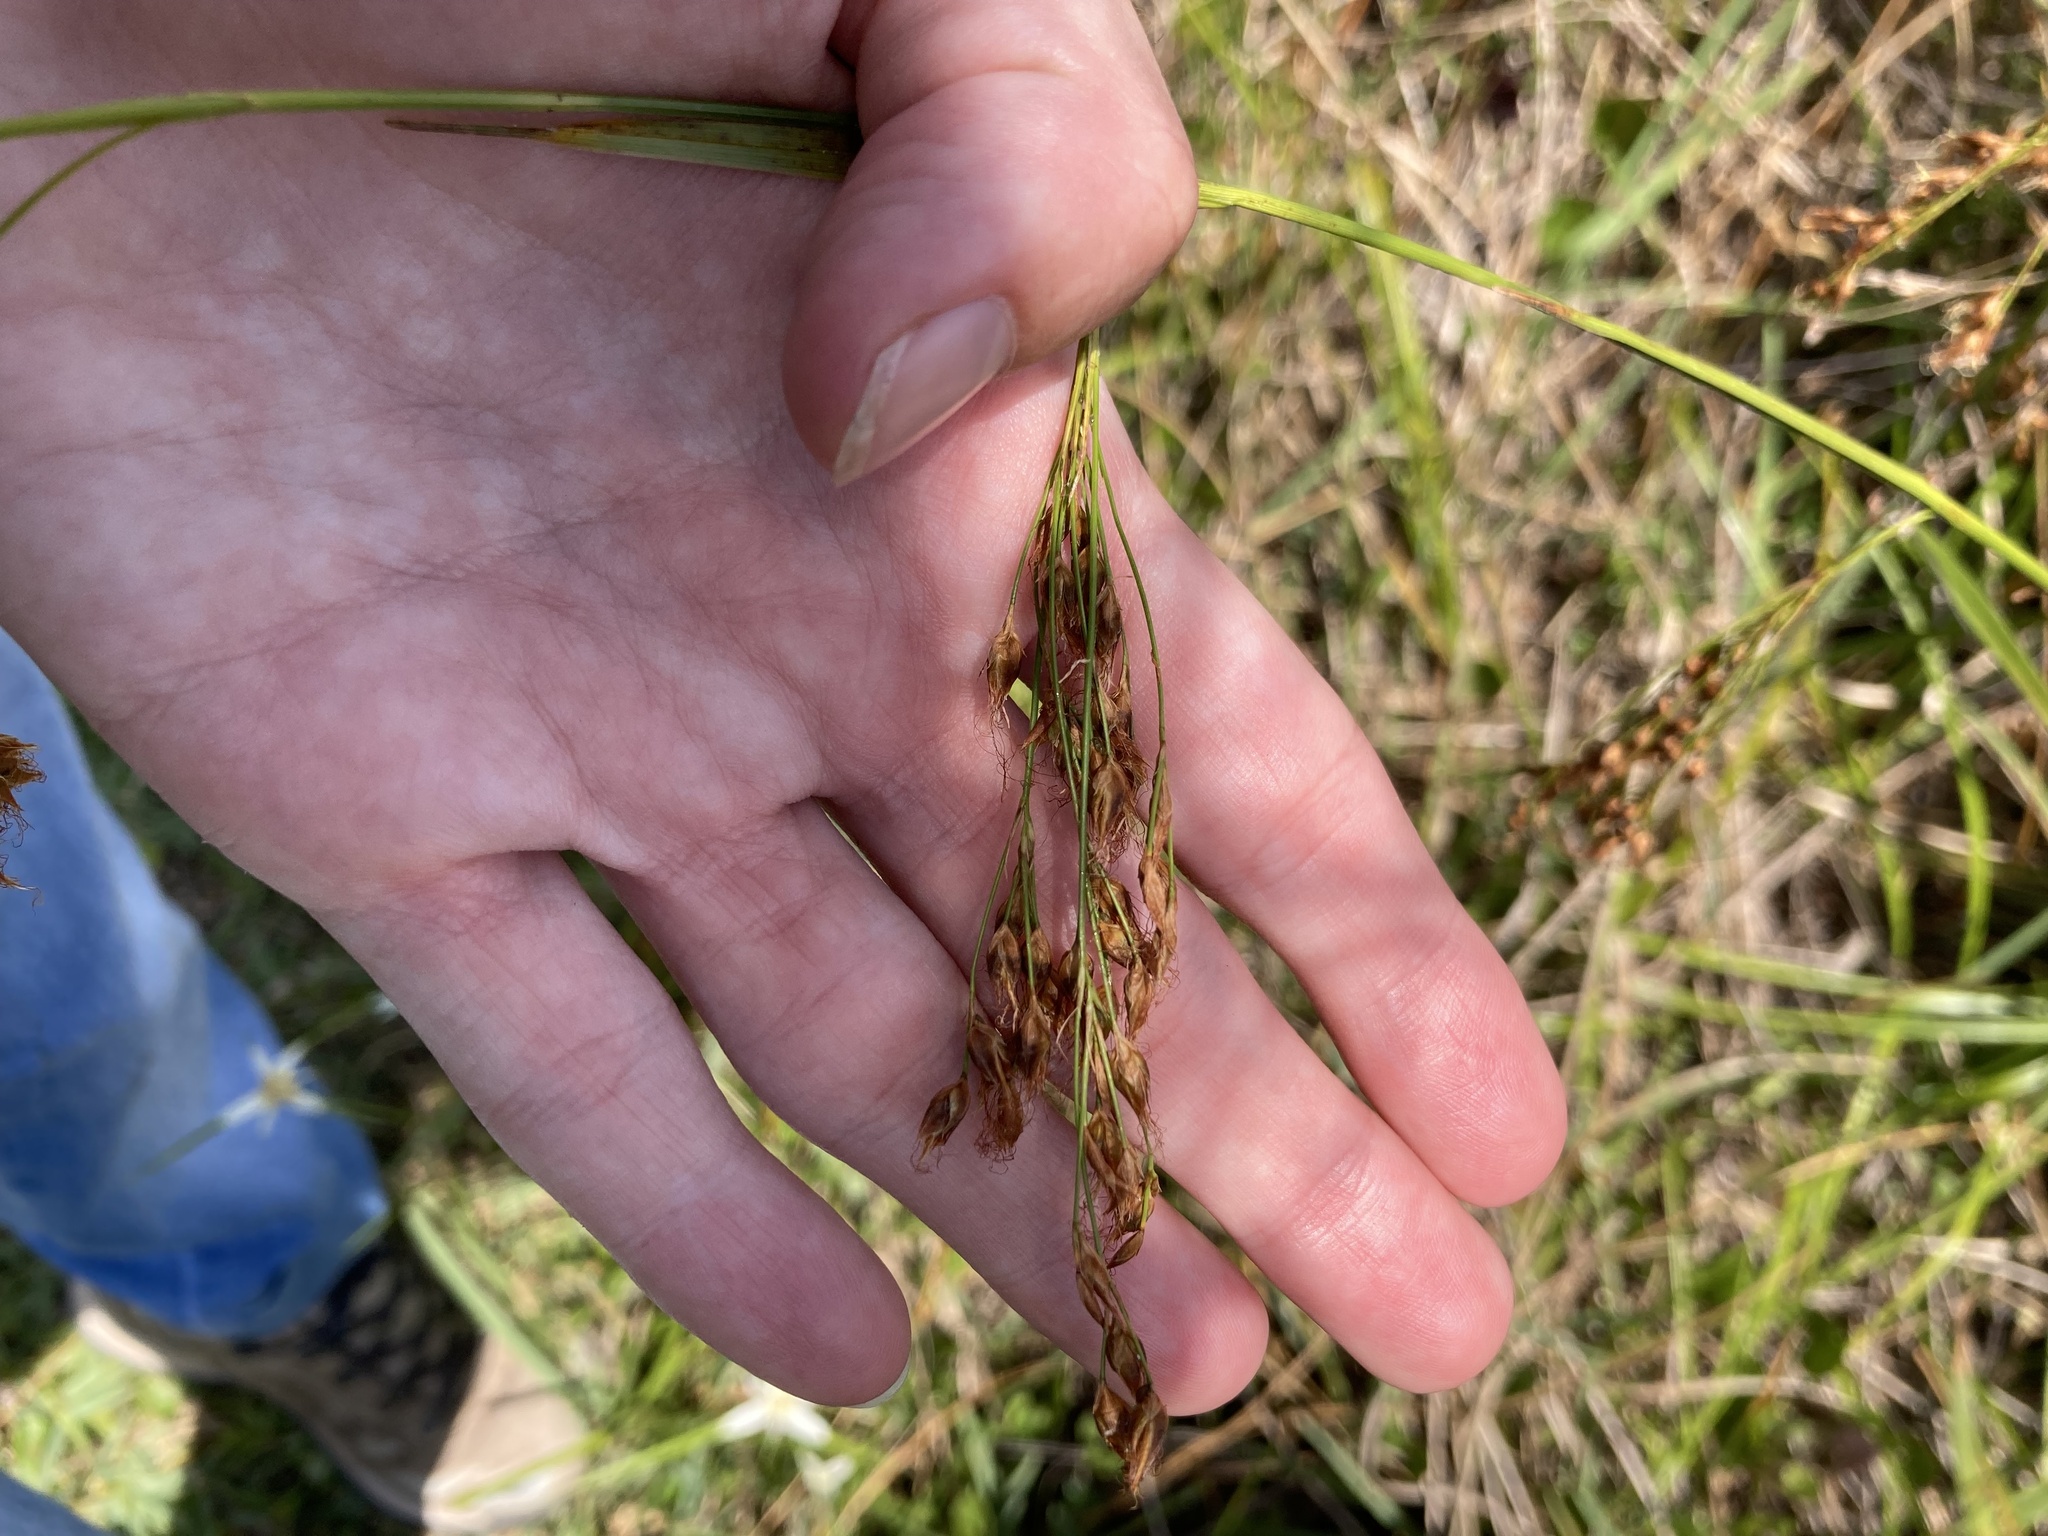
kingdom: Plantae
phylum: Tracheophyta
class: Liliopsida
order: Poales
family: Cyperaceae
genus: Rhynchospora
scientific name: Rhynchospora odorata
